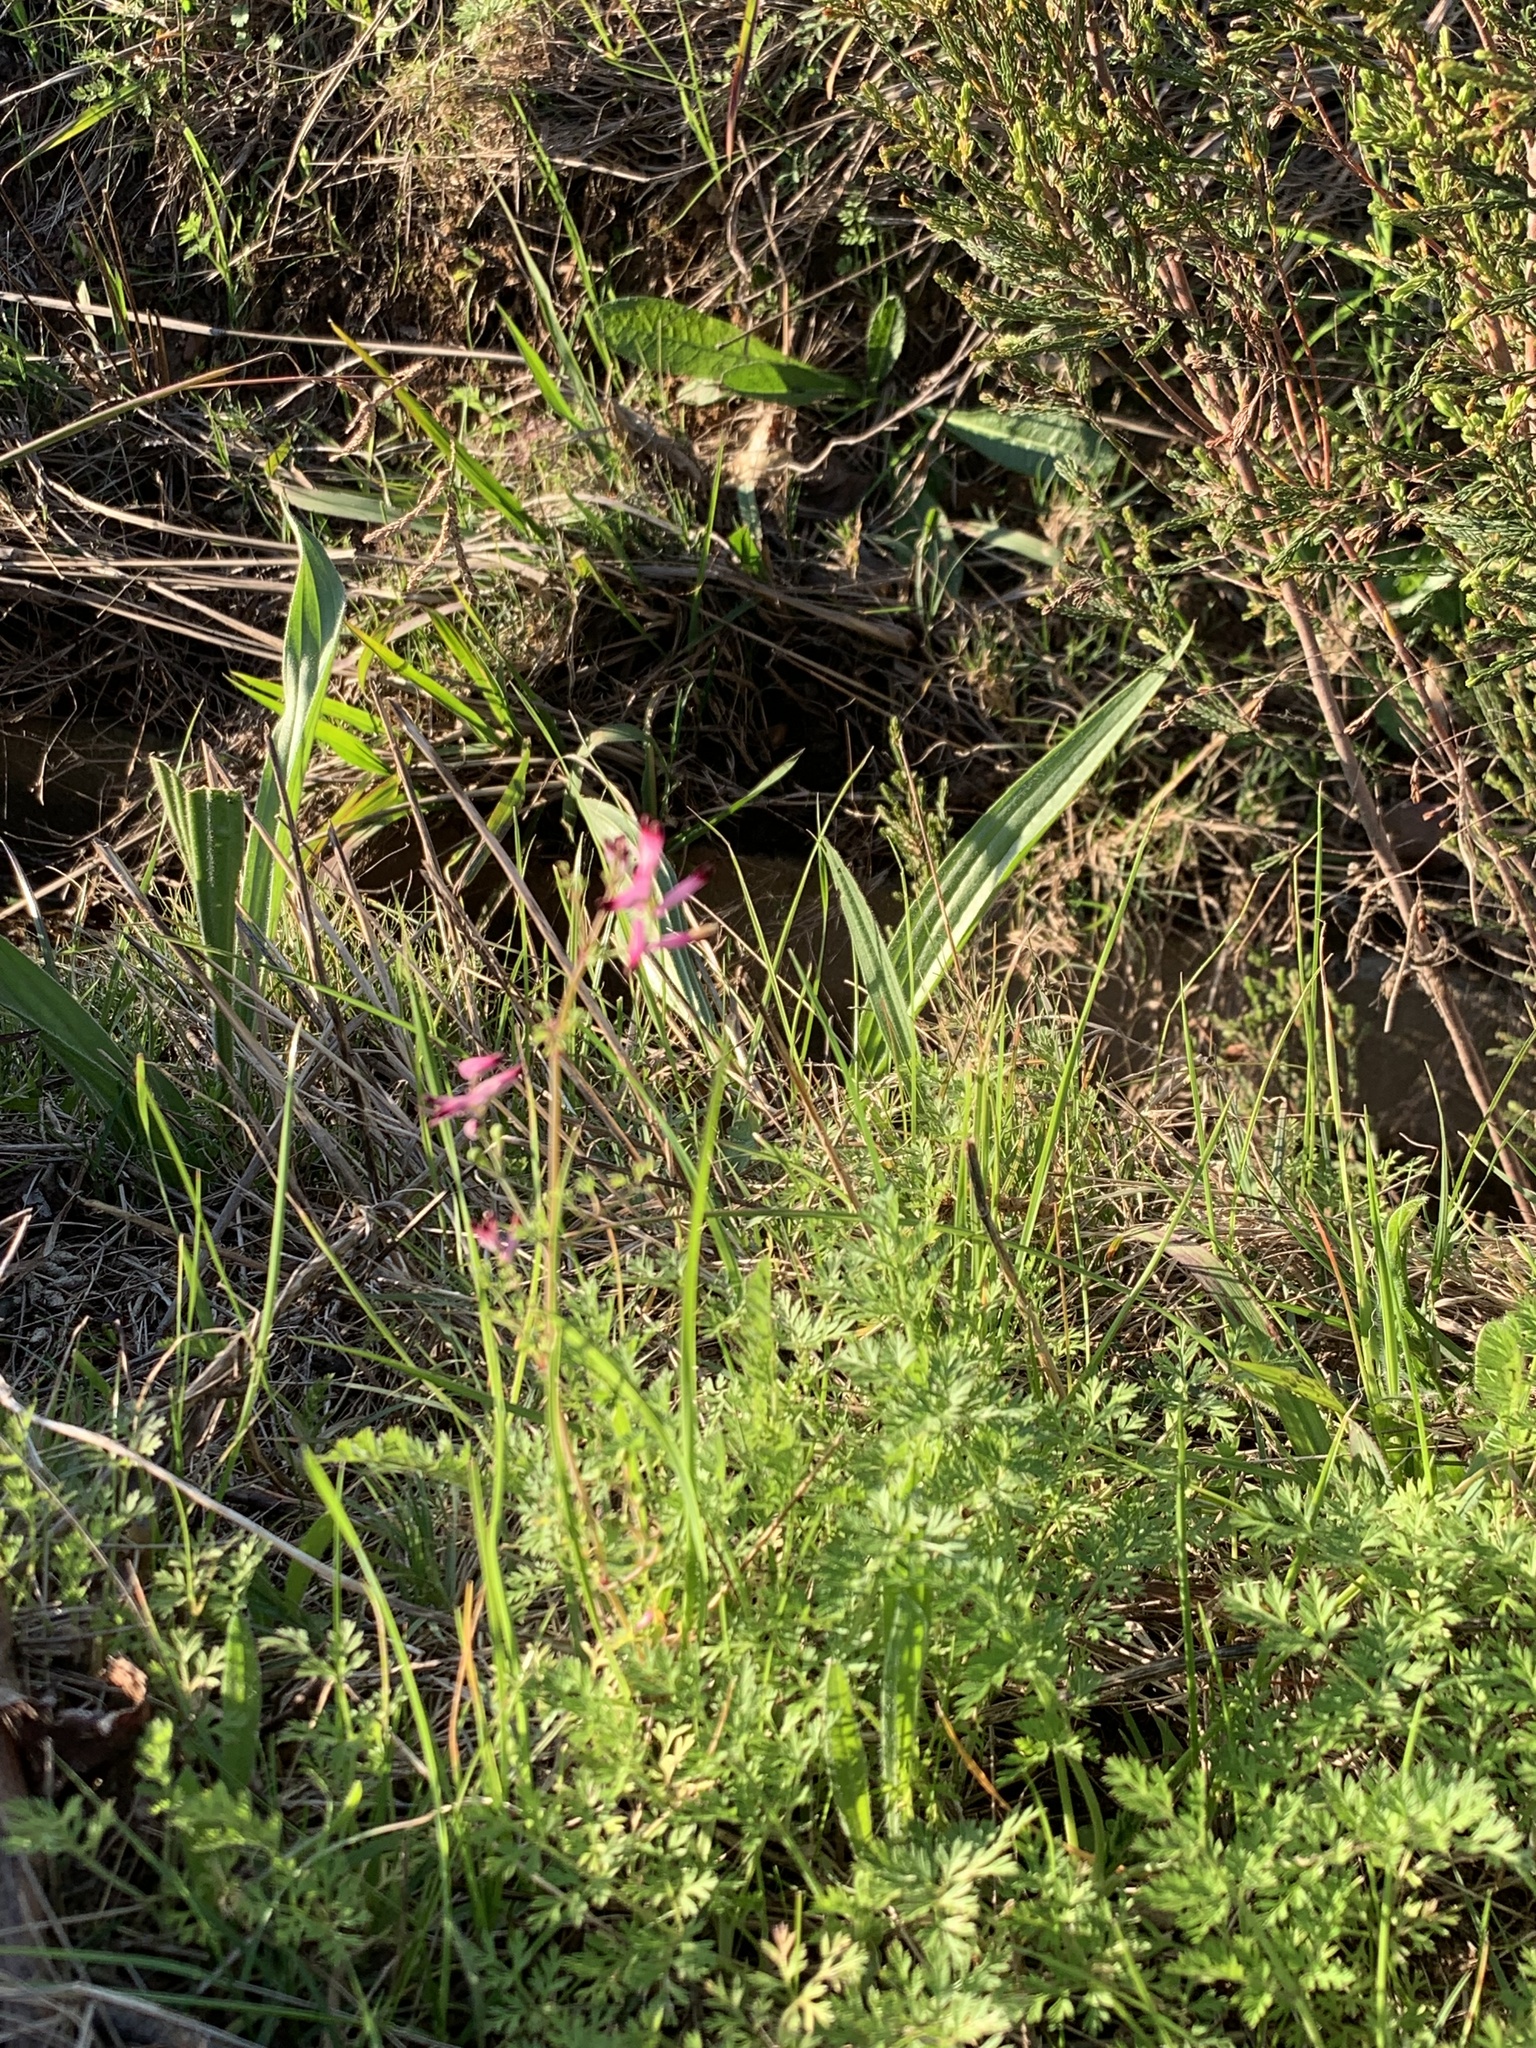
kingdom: Plantae
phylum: Tracheophyta
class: Magnoliopsida
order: Ranunculales
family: Papaveraceae
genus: Fumaria
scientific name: Fumaria muralis
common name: Common ramping-fumitory
